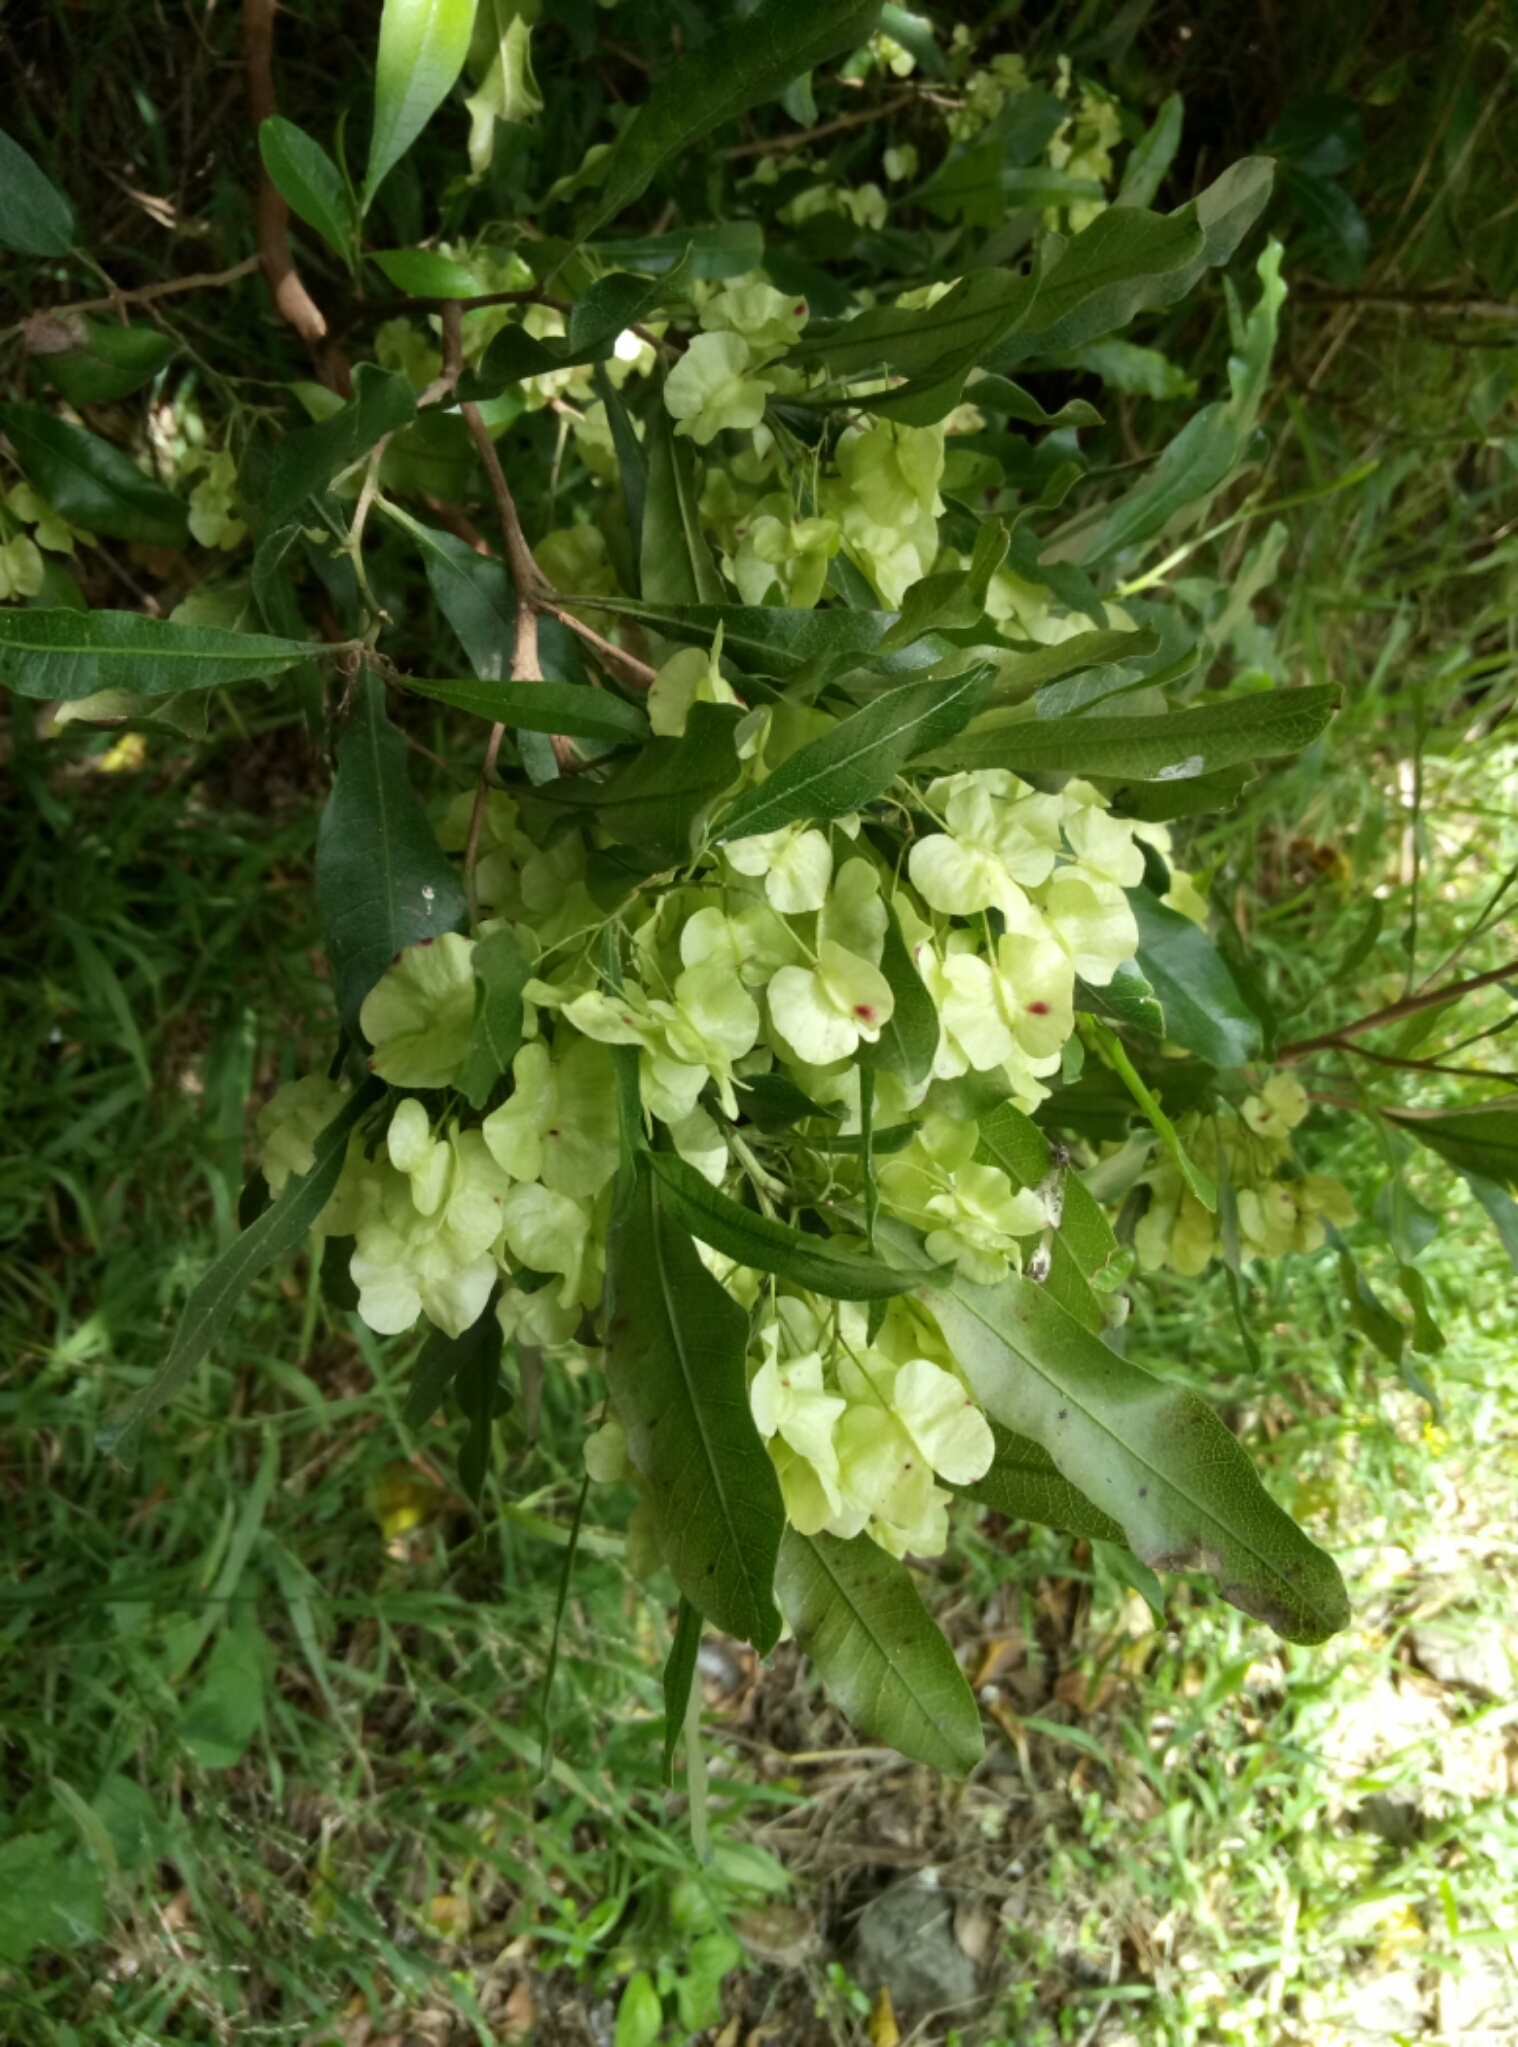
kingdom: Plantae
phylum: Tracheophyta
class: Magnoliopsida
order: Sapindales
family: Sapindaceae
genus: Dodonaea
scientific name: Dodonaea viscosa
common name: Hopbush
